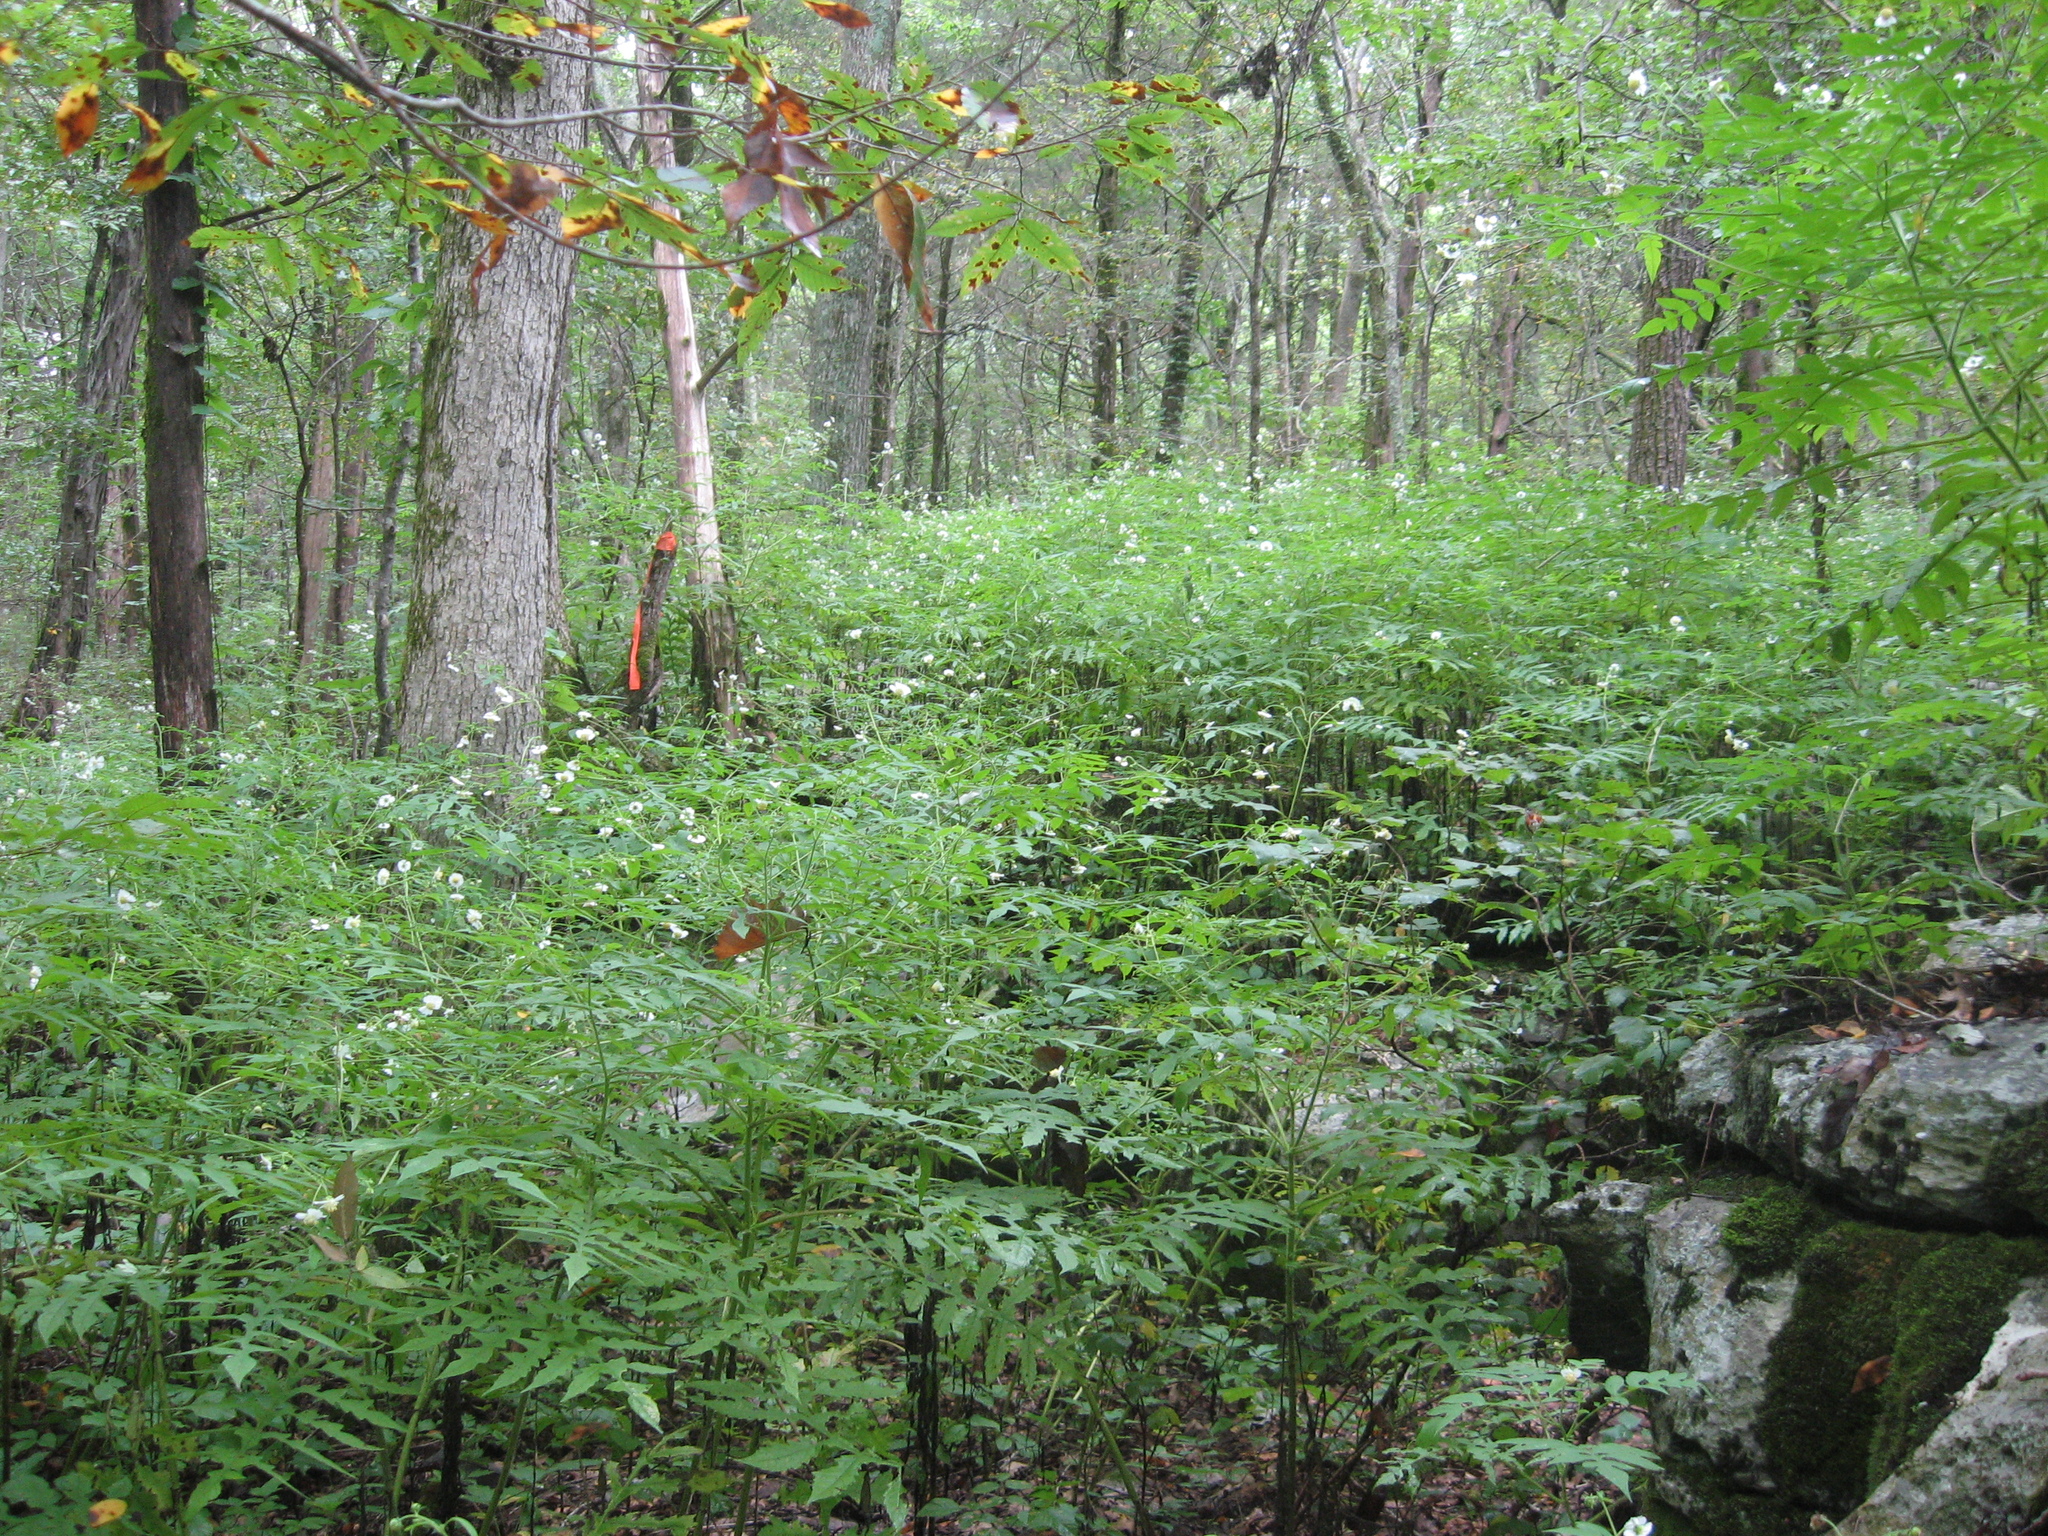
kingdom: Plantae
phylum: Tracheophyta
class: Magnoliopsida
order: Asterales
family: Asteraceae
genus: Polymnia
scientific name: Polymnia johnbeckii
